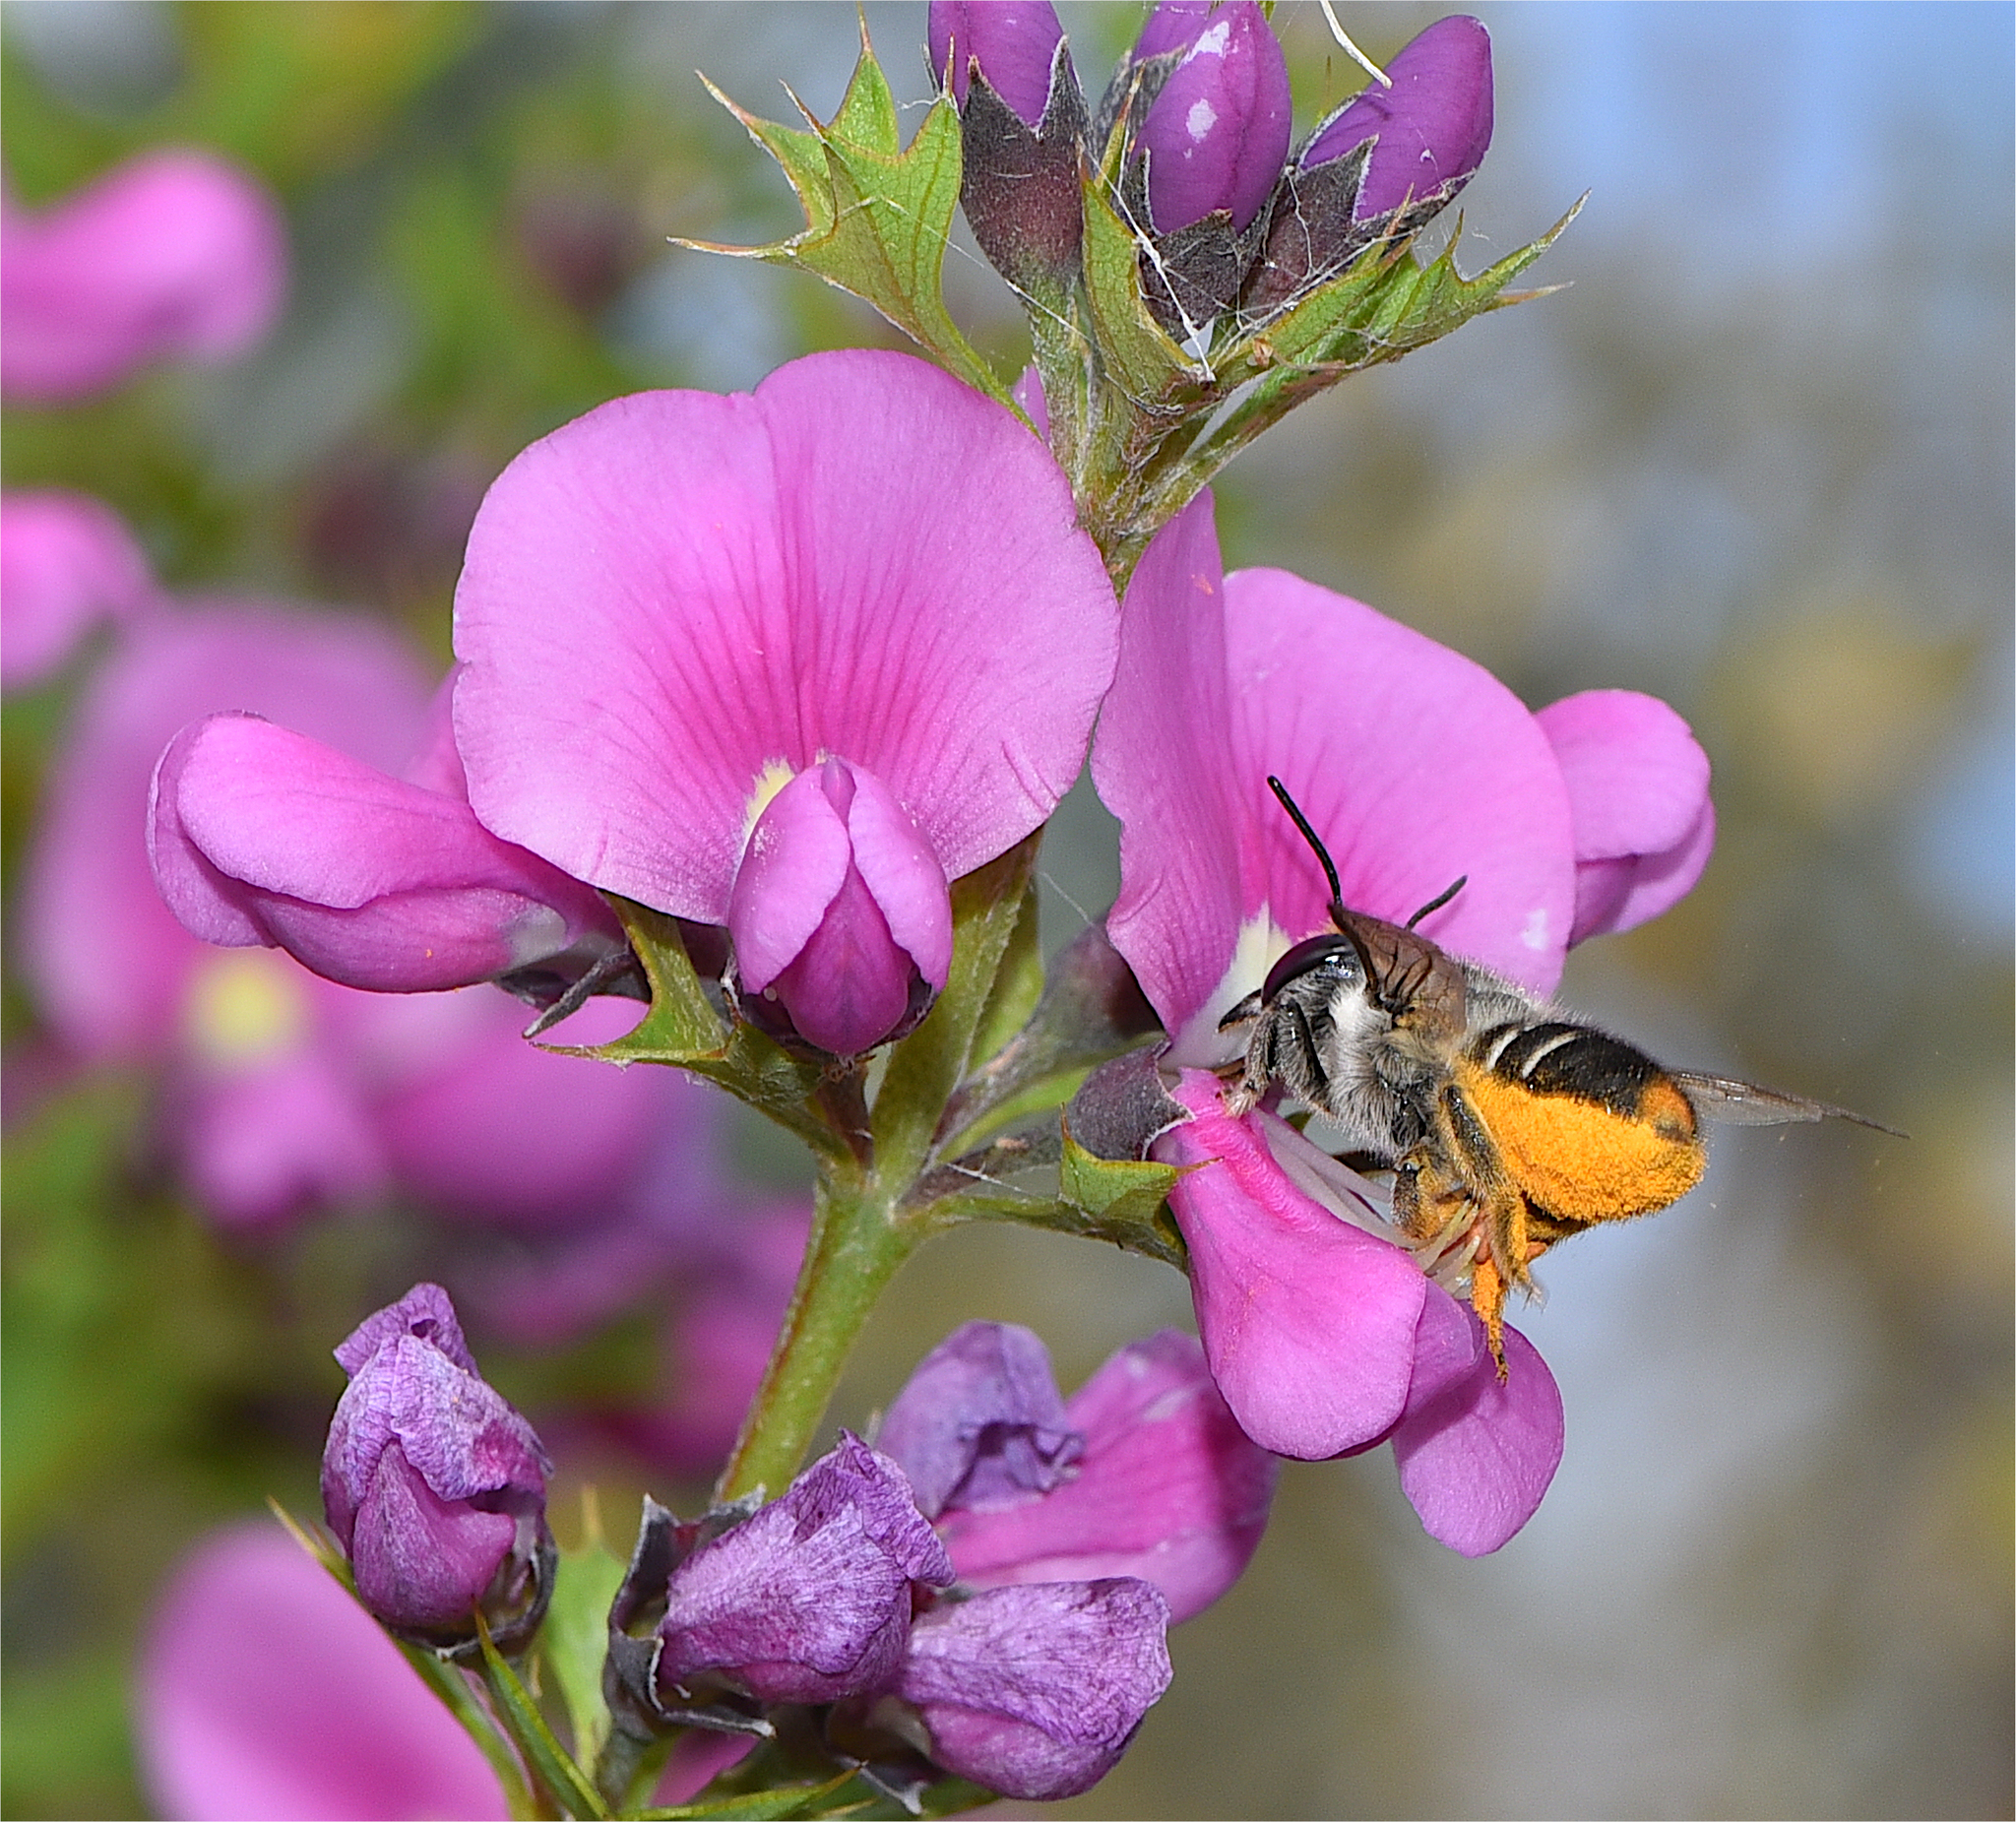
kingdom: Animalia
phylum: Arthropoda
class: Insecta
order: Hymenoptera
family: Megachilidae
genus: Megachile
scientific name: Megachile chrysopyga
